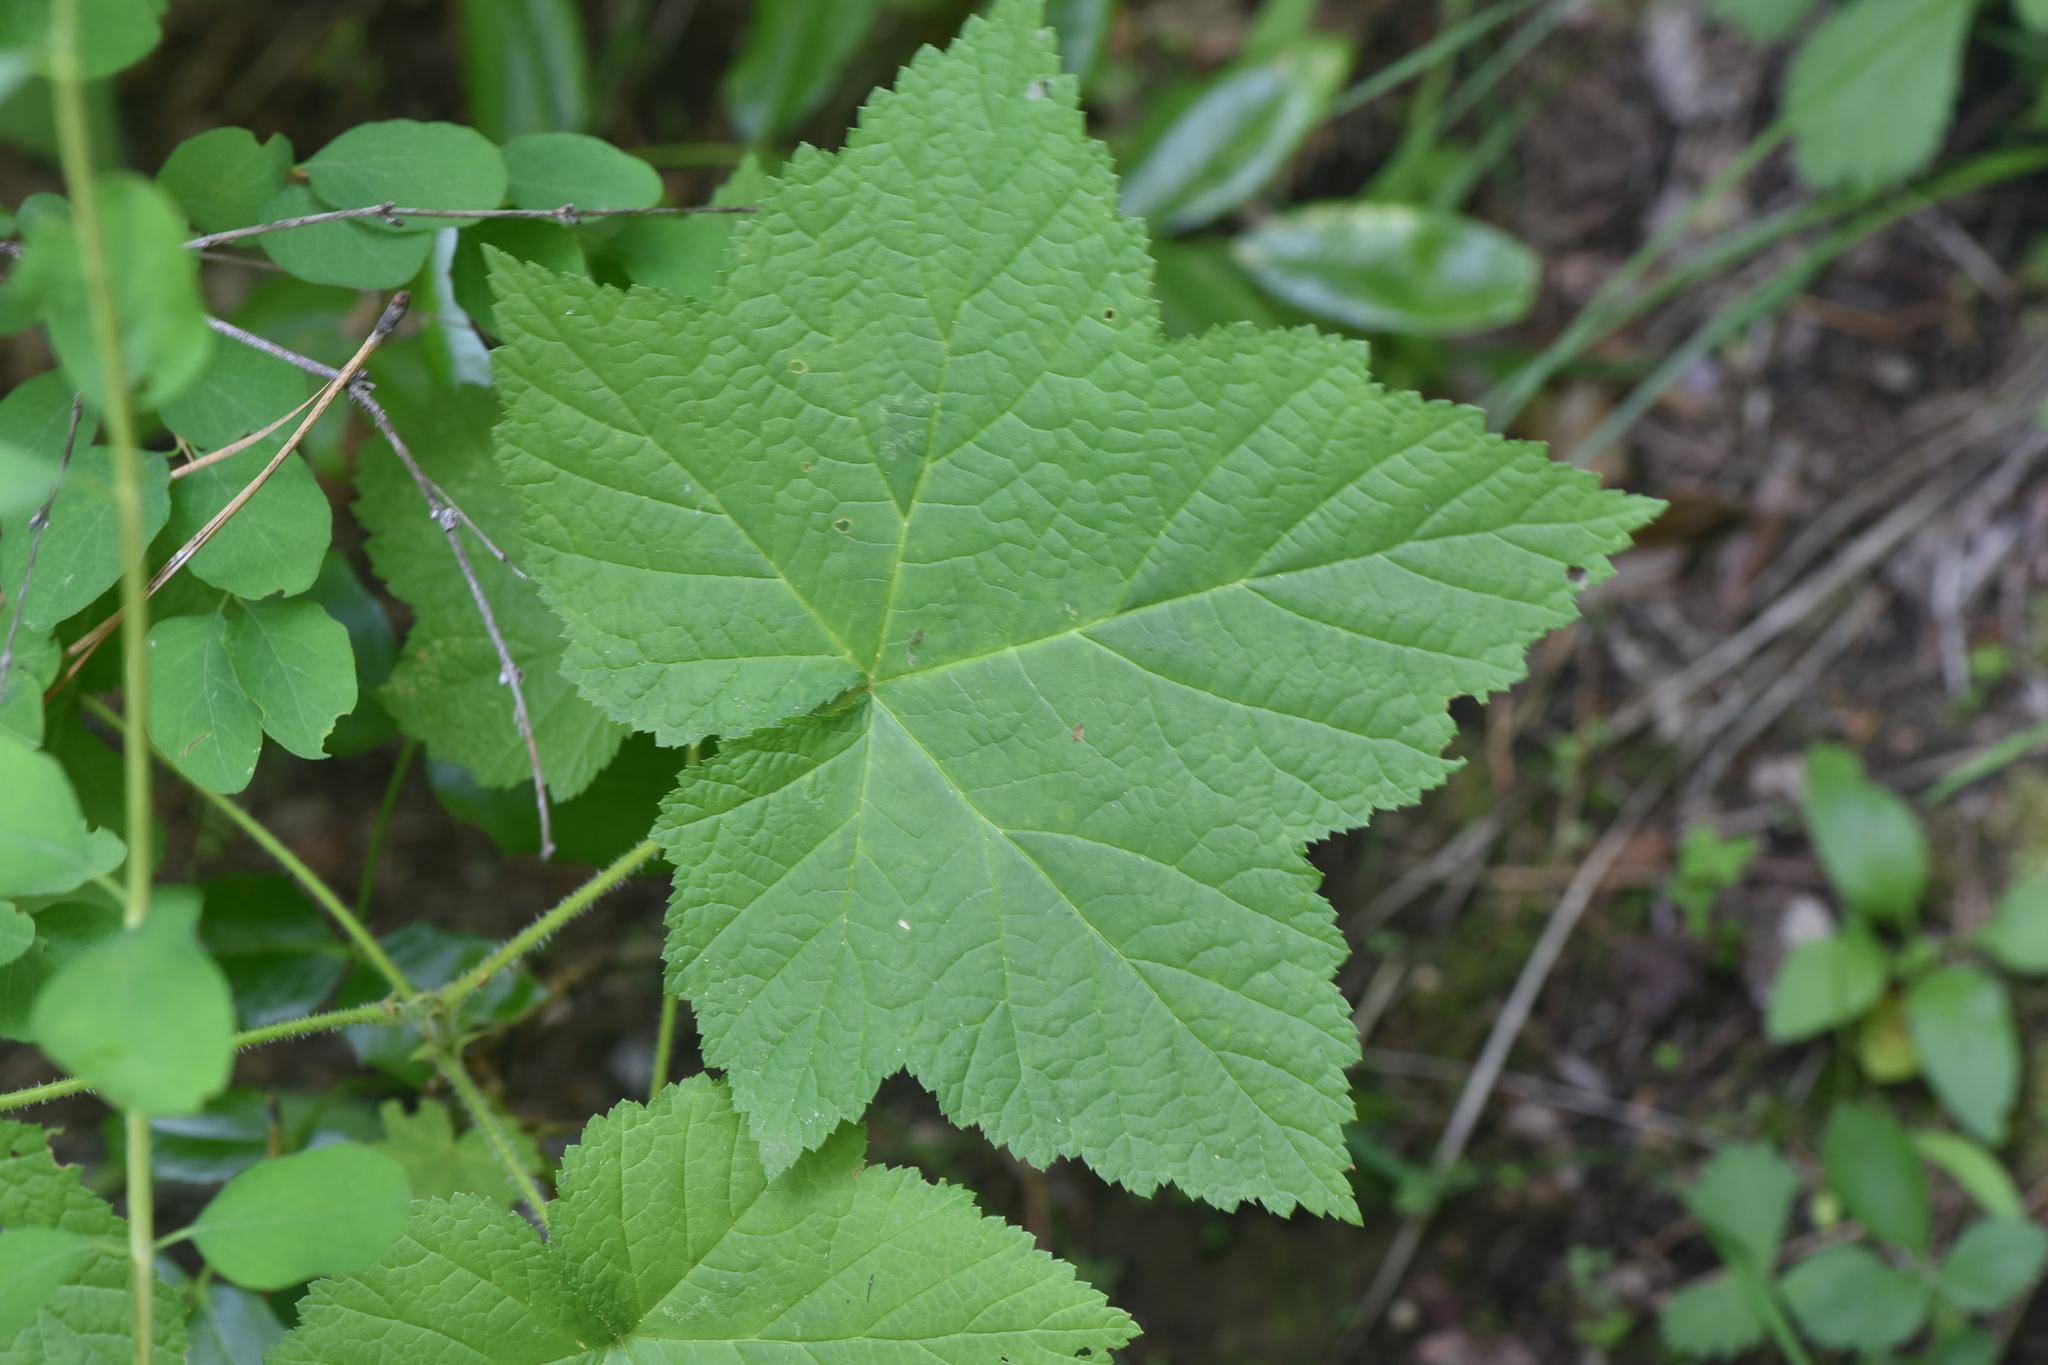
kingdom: Plantae
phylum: Tracheophyta
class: Magnoliopsida
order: Rosales
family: Rosaceae
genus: Rubus
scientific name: Rubus parviflorus
